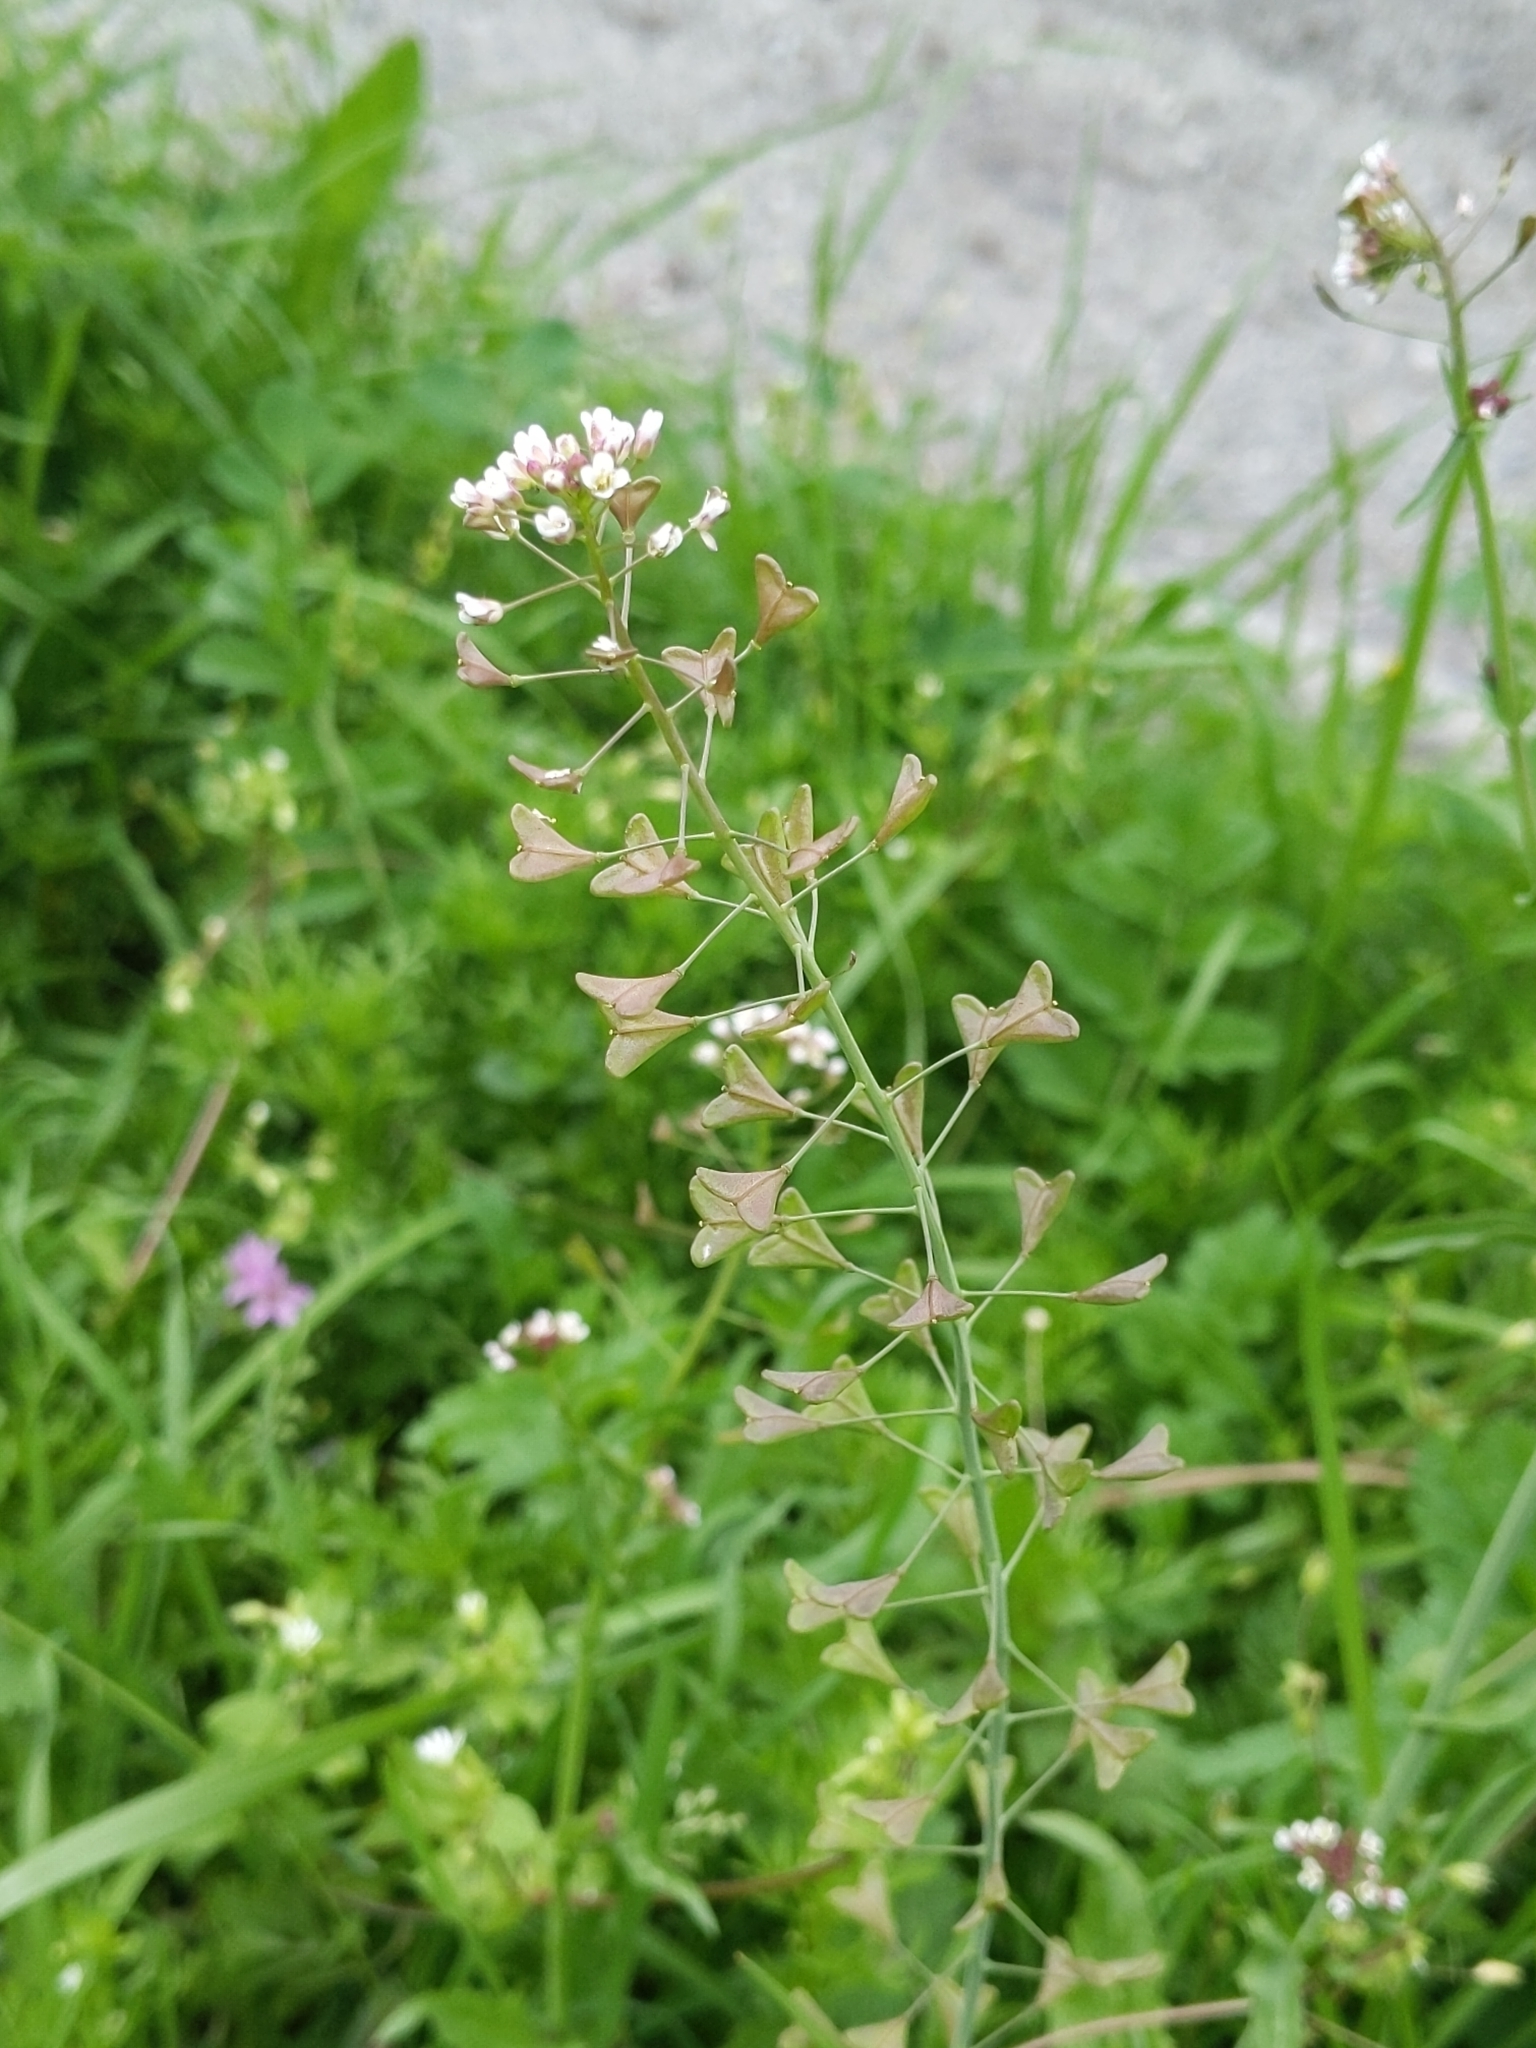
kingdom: Plantae
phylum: Tracheophyta
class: Magnoliopsida
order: Brassicales
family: Brassicaceae
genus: Capsella
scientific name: Capsella bursa-pastoris
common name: Shepherd's purse
